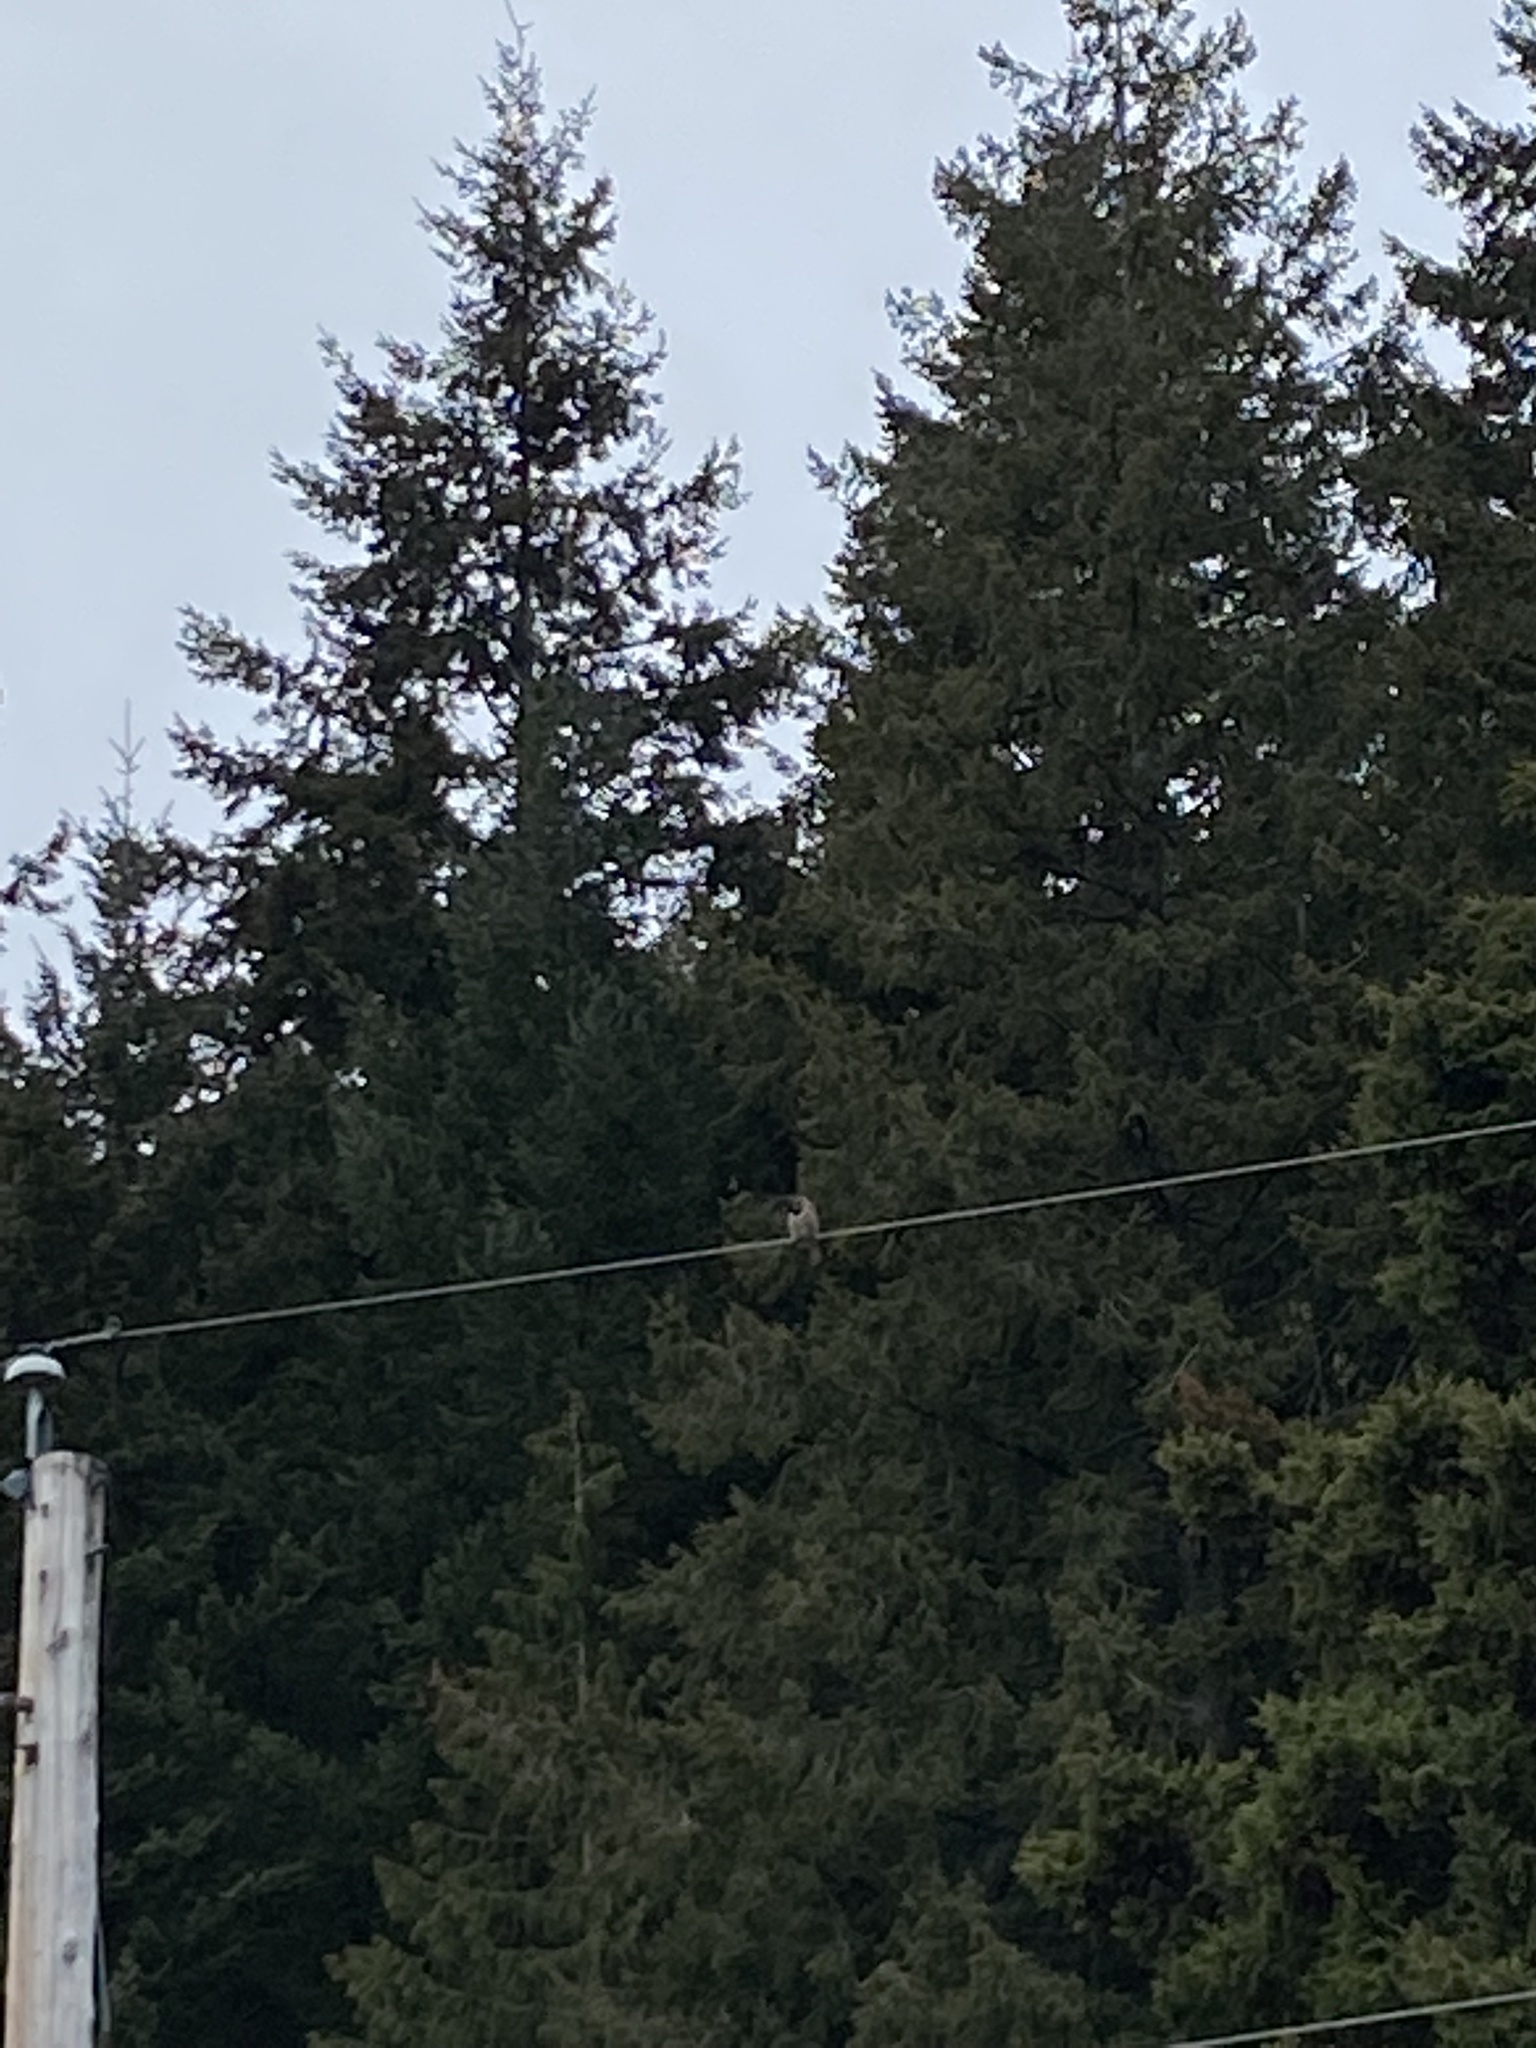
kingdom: Animalia
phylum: Chordata
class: Aves
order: Piciformes
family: Picidae
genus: Colaptes
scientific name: Colaptes auratus
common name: Northern flicker
